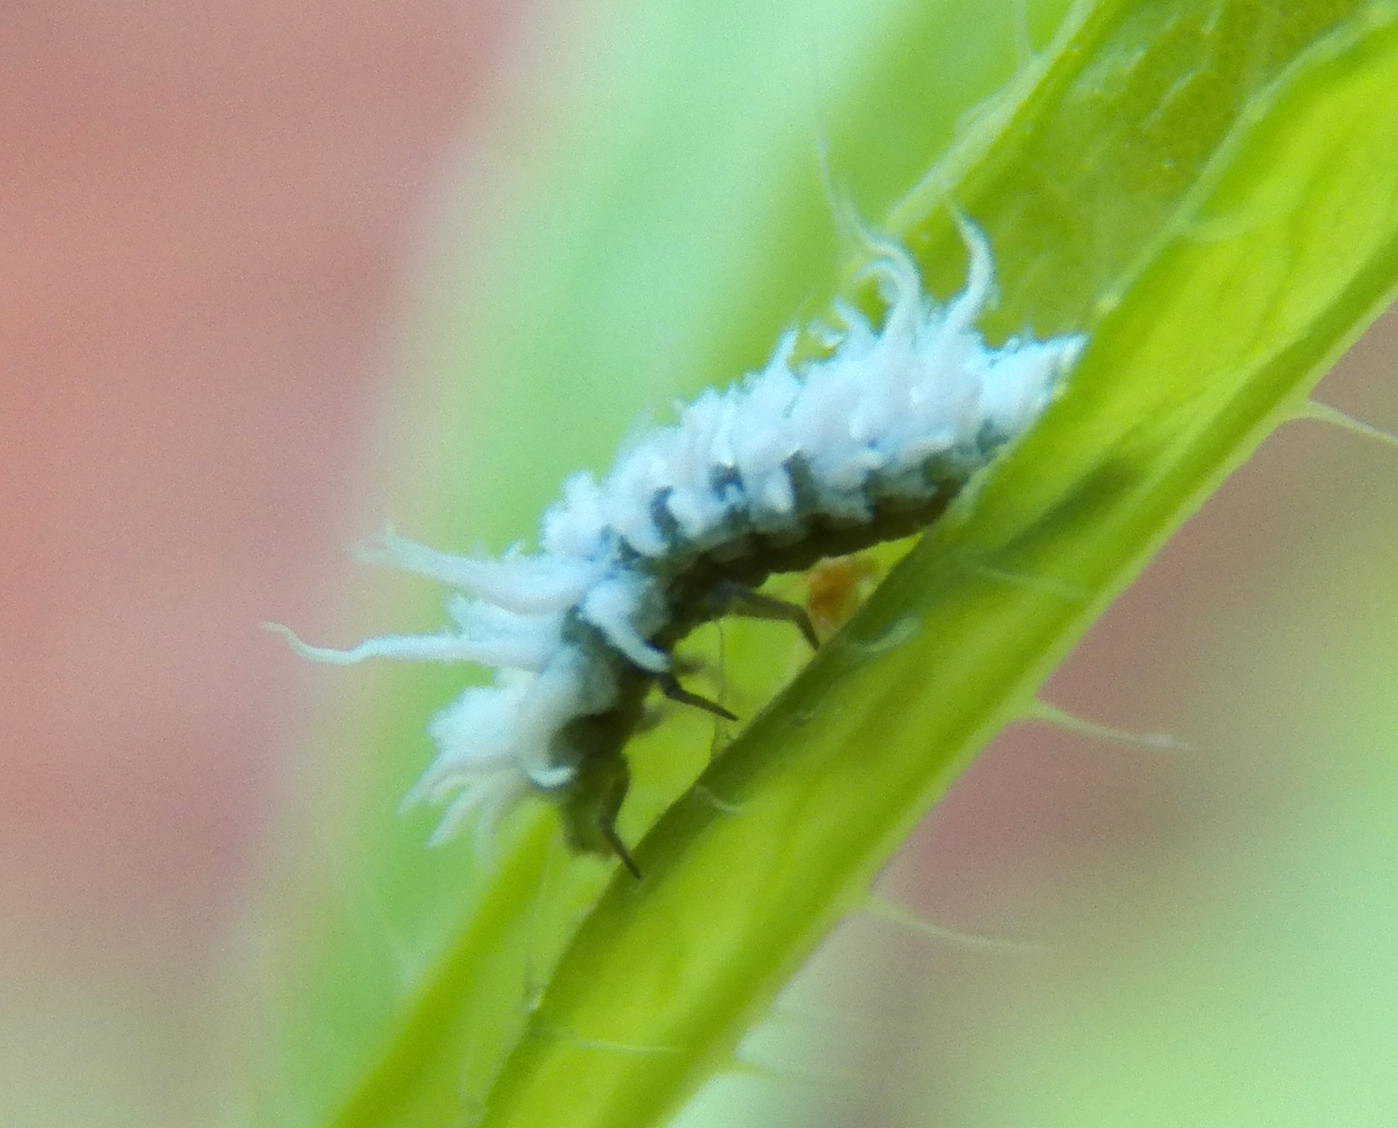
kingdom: Animalia
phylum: Arthropoda
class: Insecta
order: Coleoptera
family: Coccinellidae
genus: Cryptolaemus
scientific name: Cryptolaemus montrouzieri
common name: Mealybug destroyer
